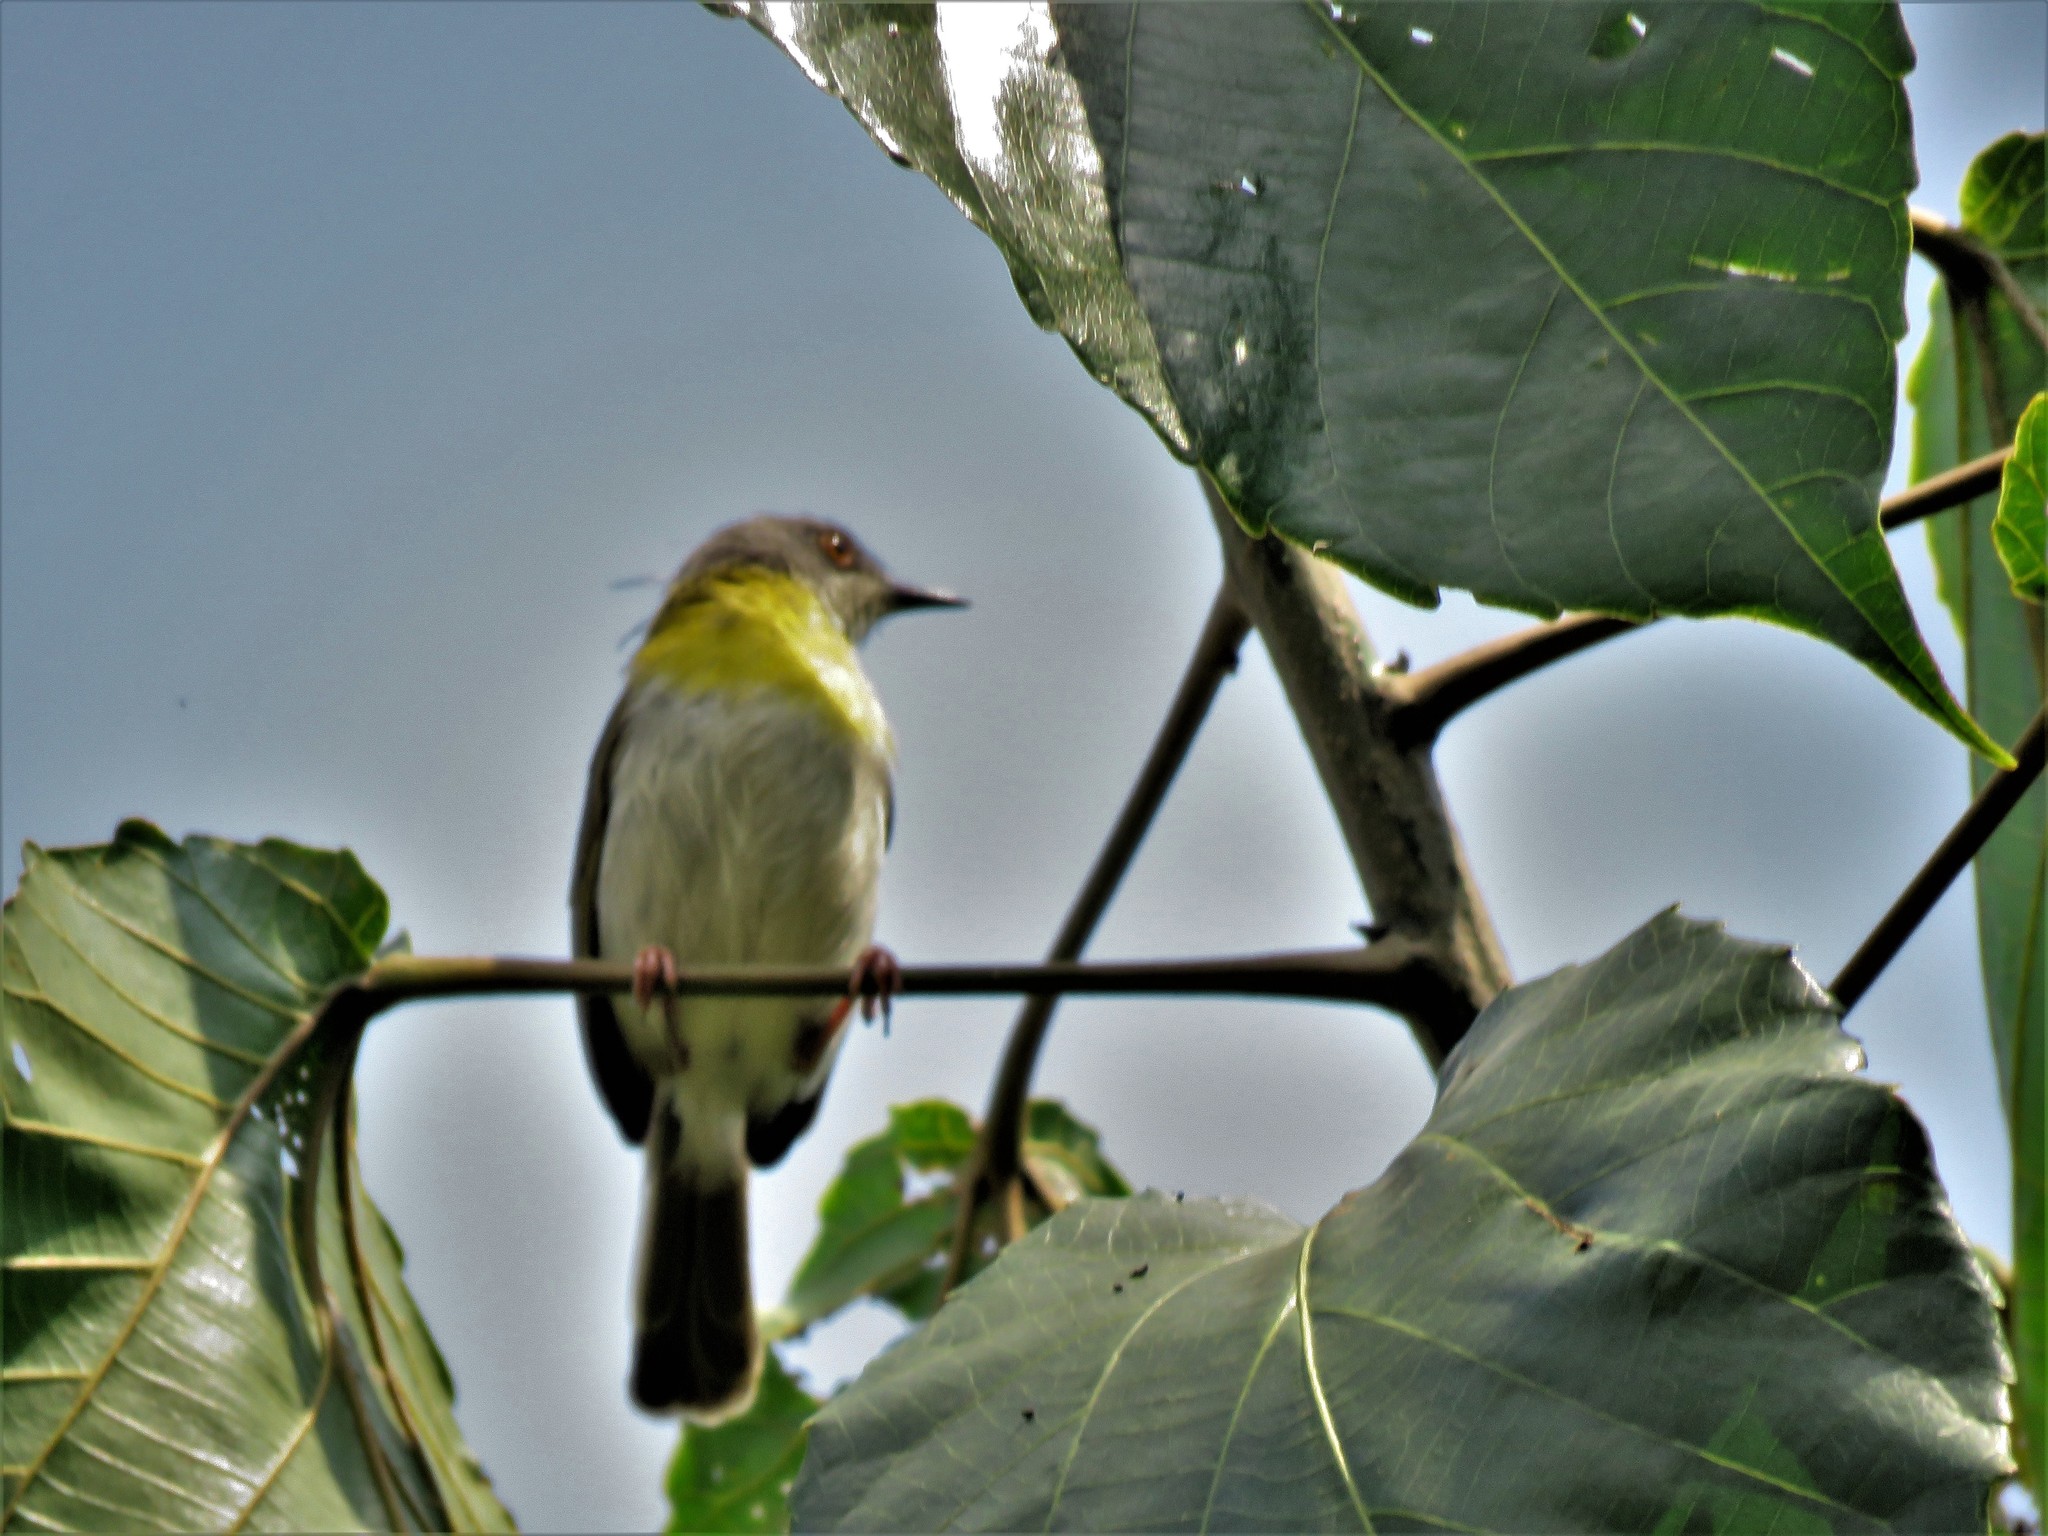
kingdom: Animalia
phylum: Chordata
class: Aves
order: Passeriformes
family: Cisticolidae
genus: Apalis
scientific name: Apalis flavida
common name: Yellow-breasted apalis
